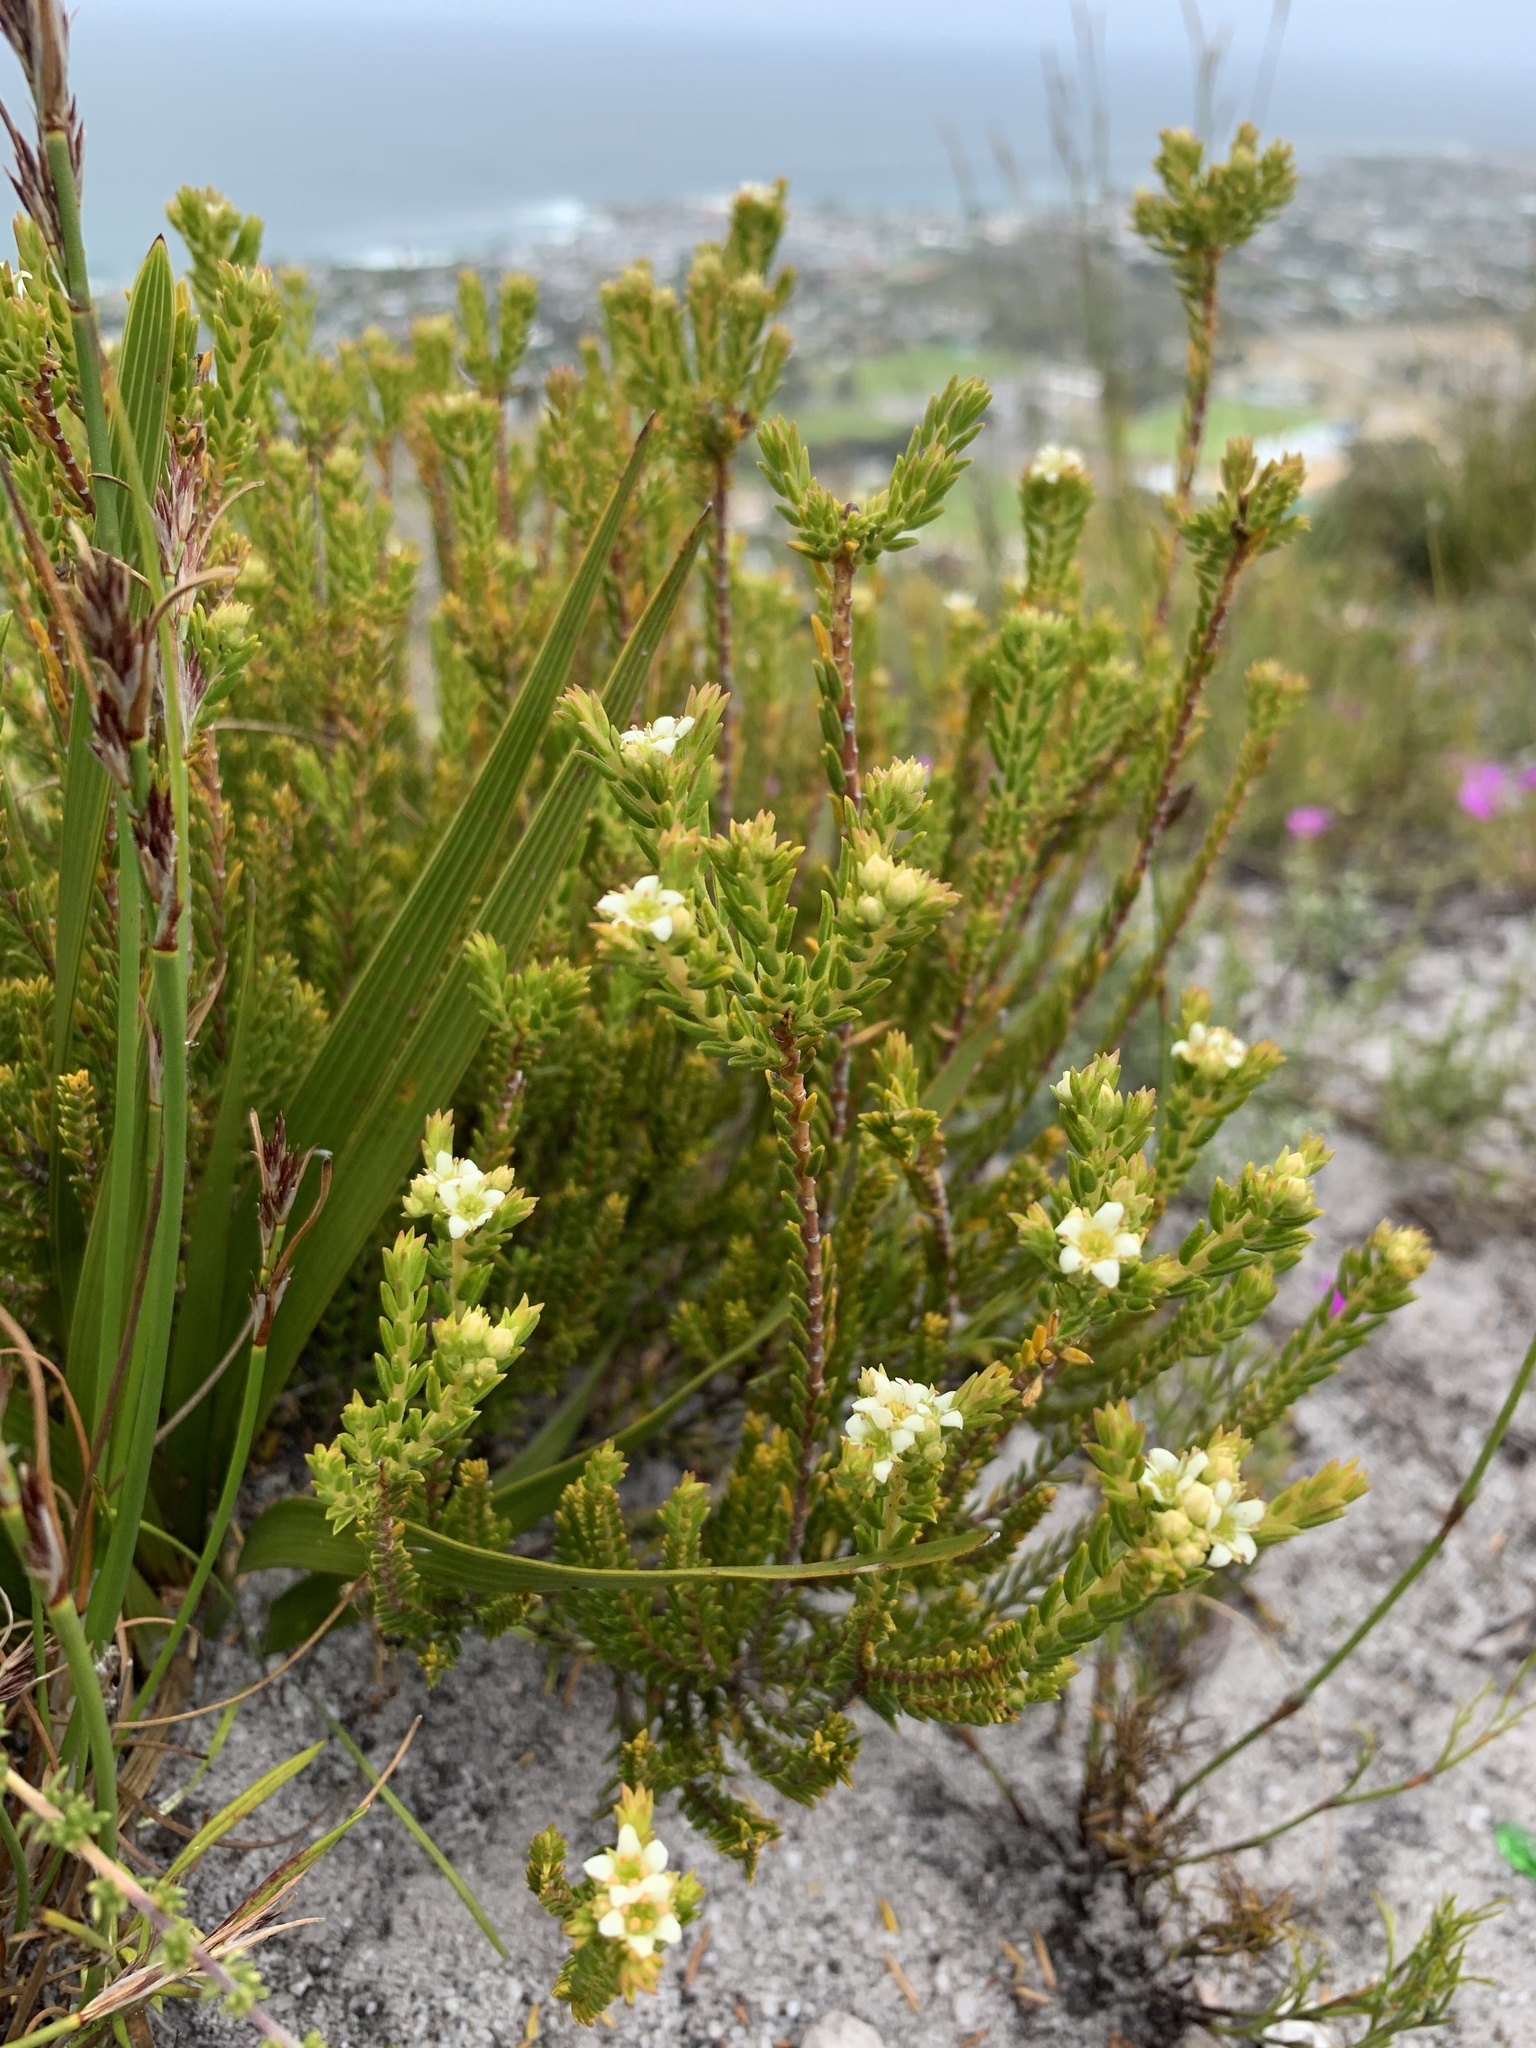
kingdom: Plantae
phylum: Tracheophyta
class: Magnoliopsida
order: Sapindales
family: Rutaceae
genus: Diosma
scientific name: Diosma oppositifolia
